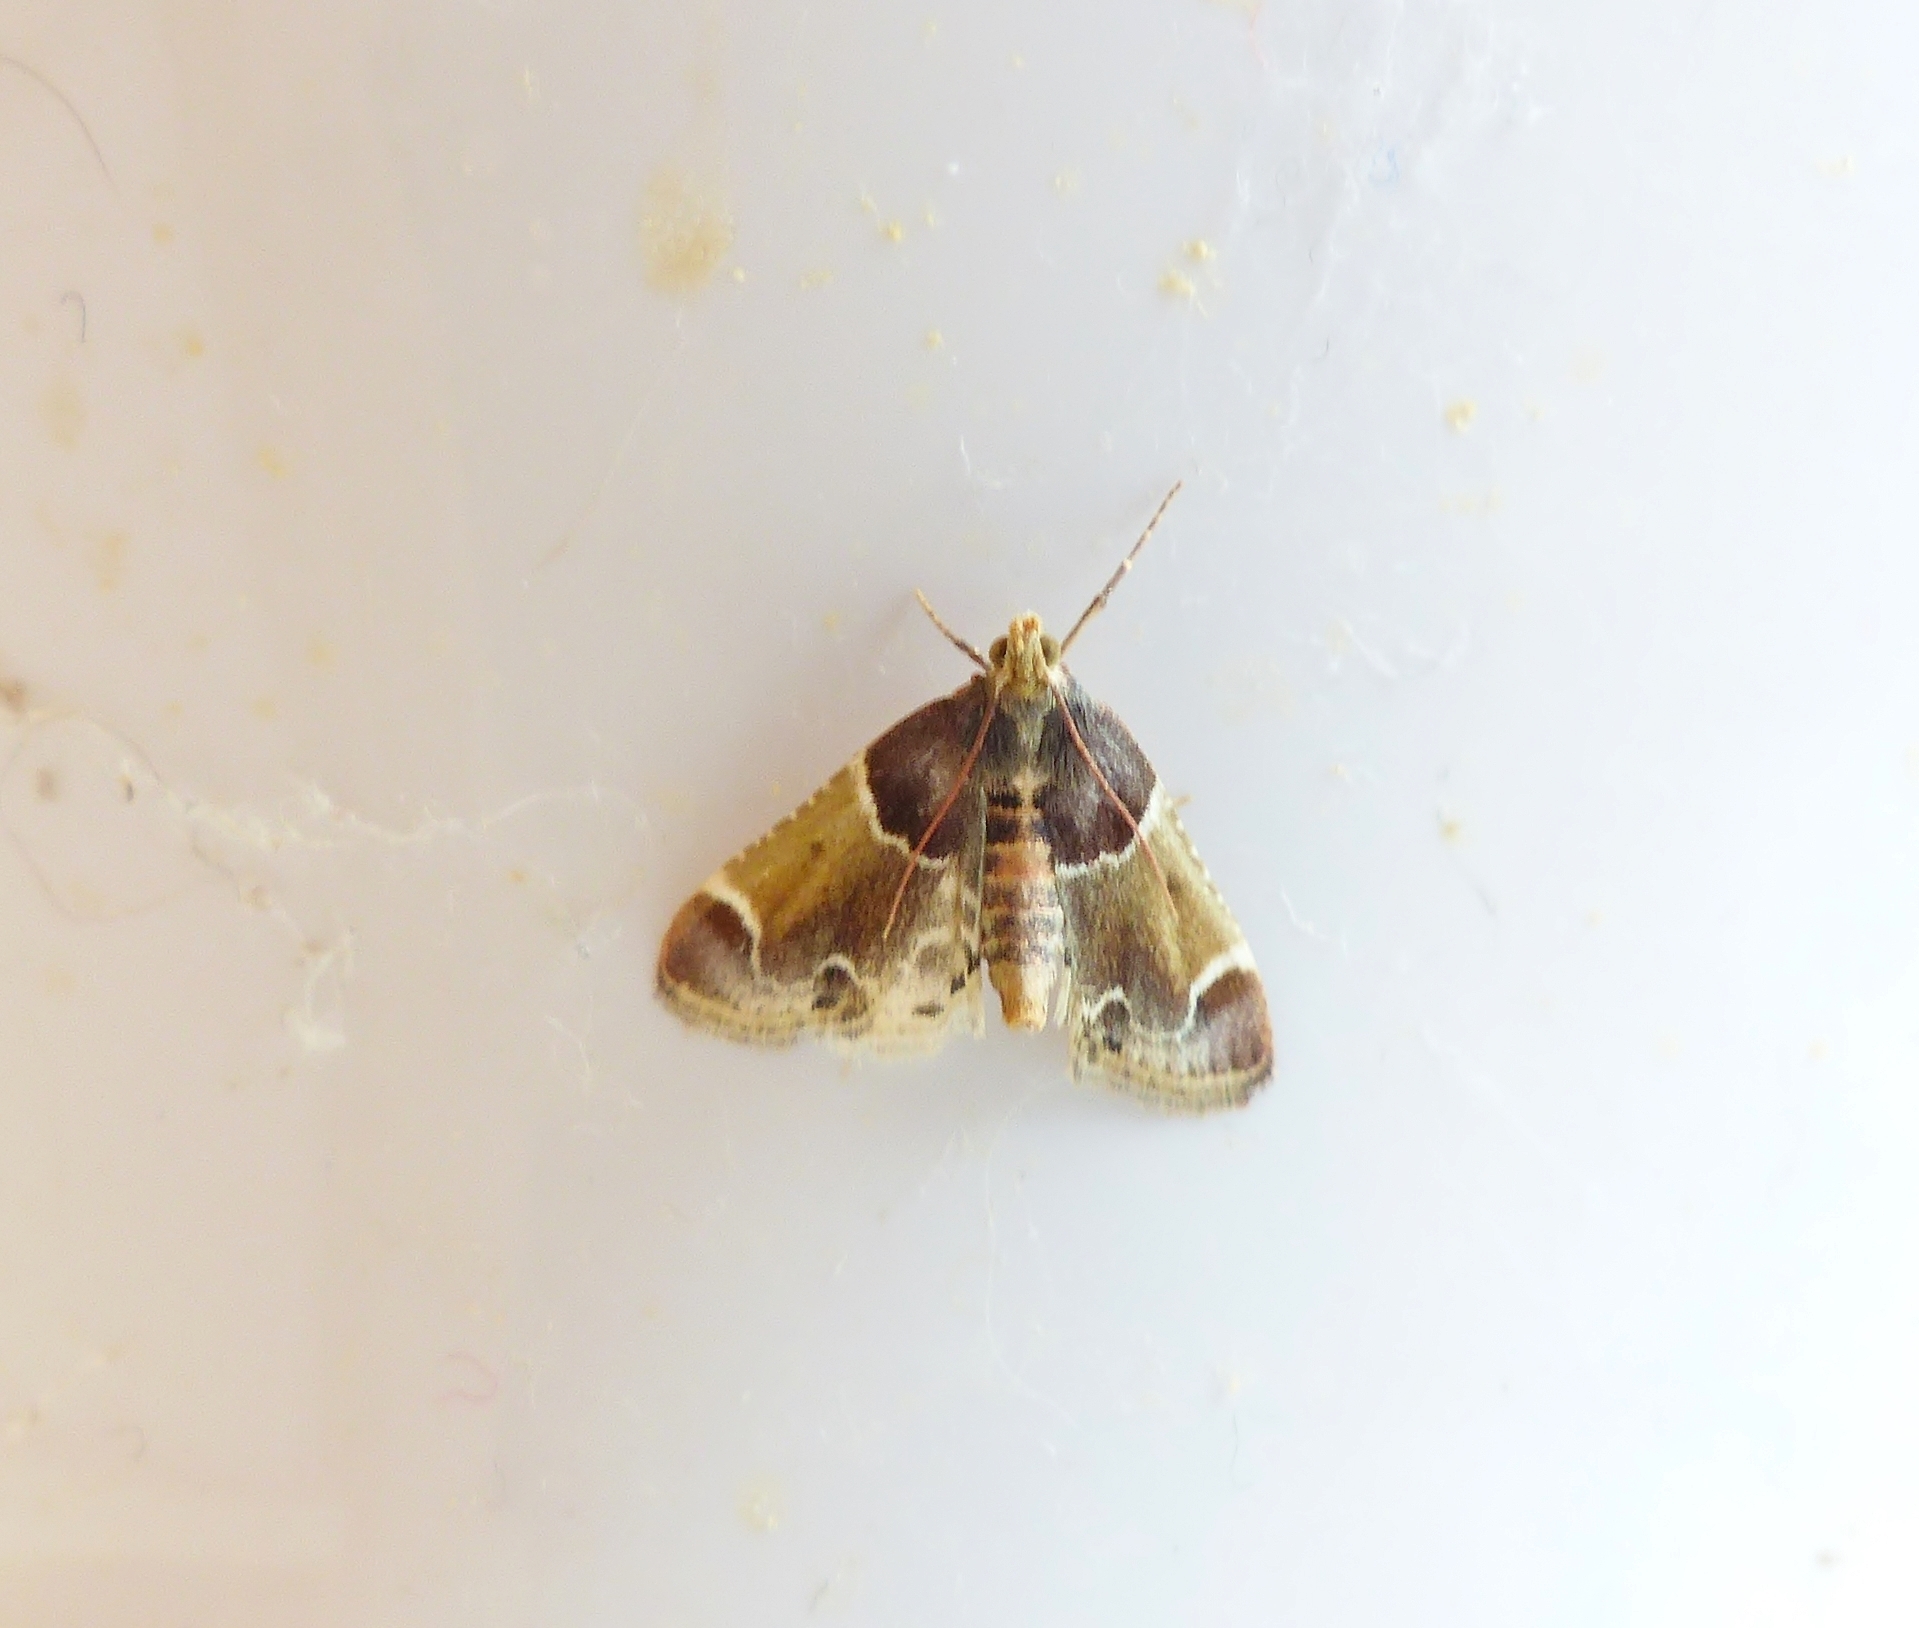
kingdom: Animalia
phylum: Arthropoda
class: Insecta
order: Lepidoptera
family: Pyralidae
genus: Pyralis
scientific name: Pyralis farinalis
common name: Meal moth
